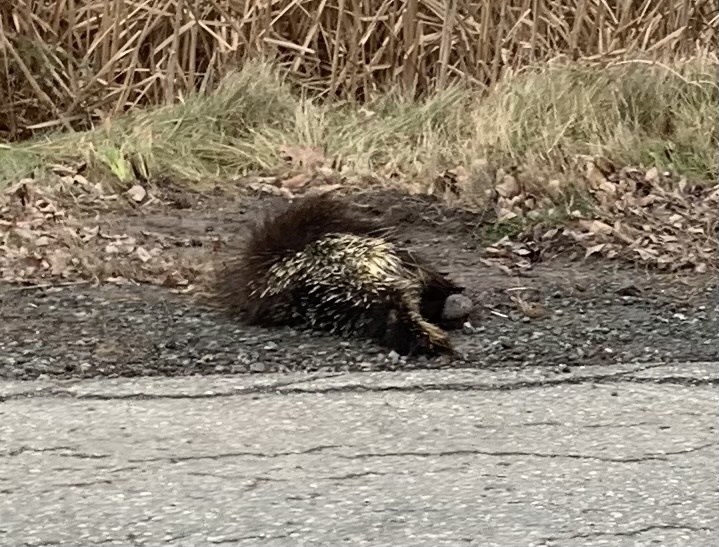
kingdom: Animalia
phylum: Chordata
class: Mammalia
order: Rodentia
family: Erethizontidae
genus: Erethizon
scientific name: Erethizon dorsatus
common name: North american porcupine
